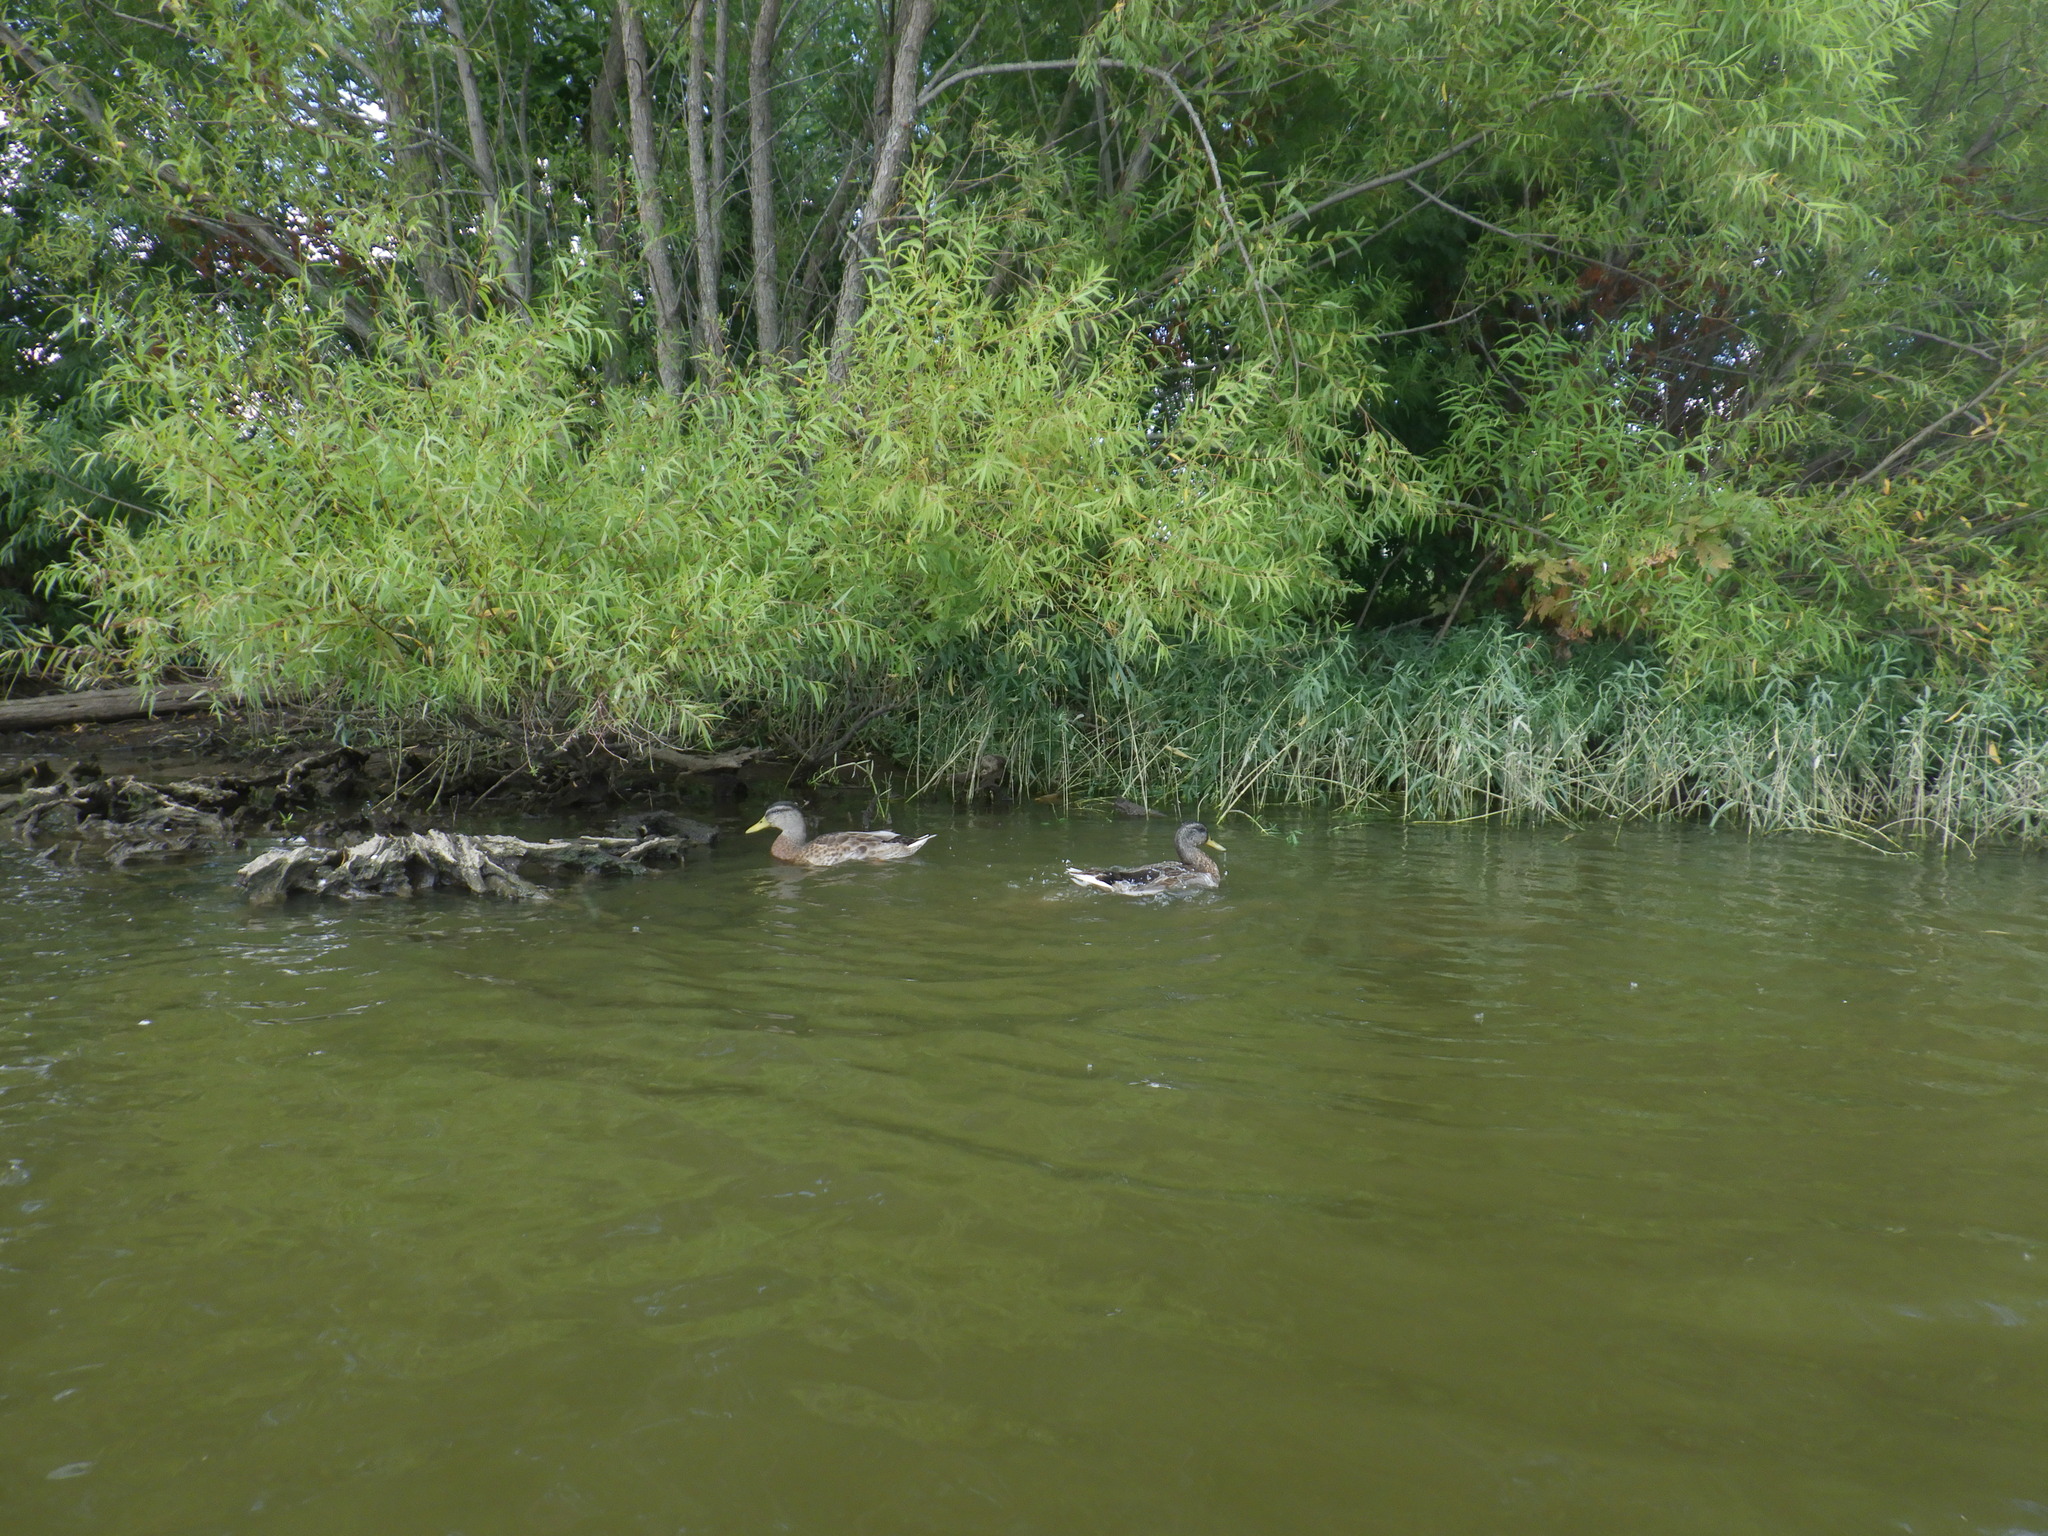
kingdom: Animalia
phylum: Chordata
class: Aves
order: Anseriformes
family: Anatidae
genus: Anas
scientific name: Anas platyrhynchos
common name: Mallard
